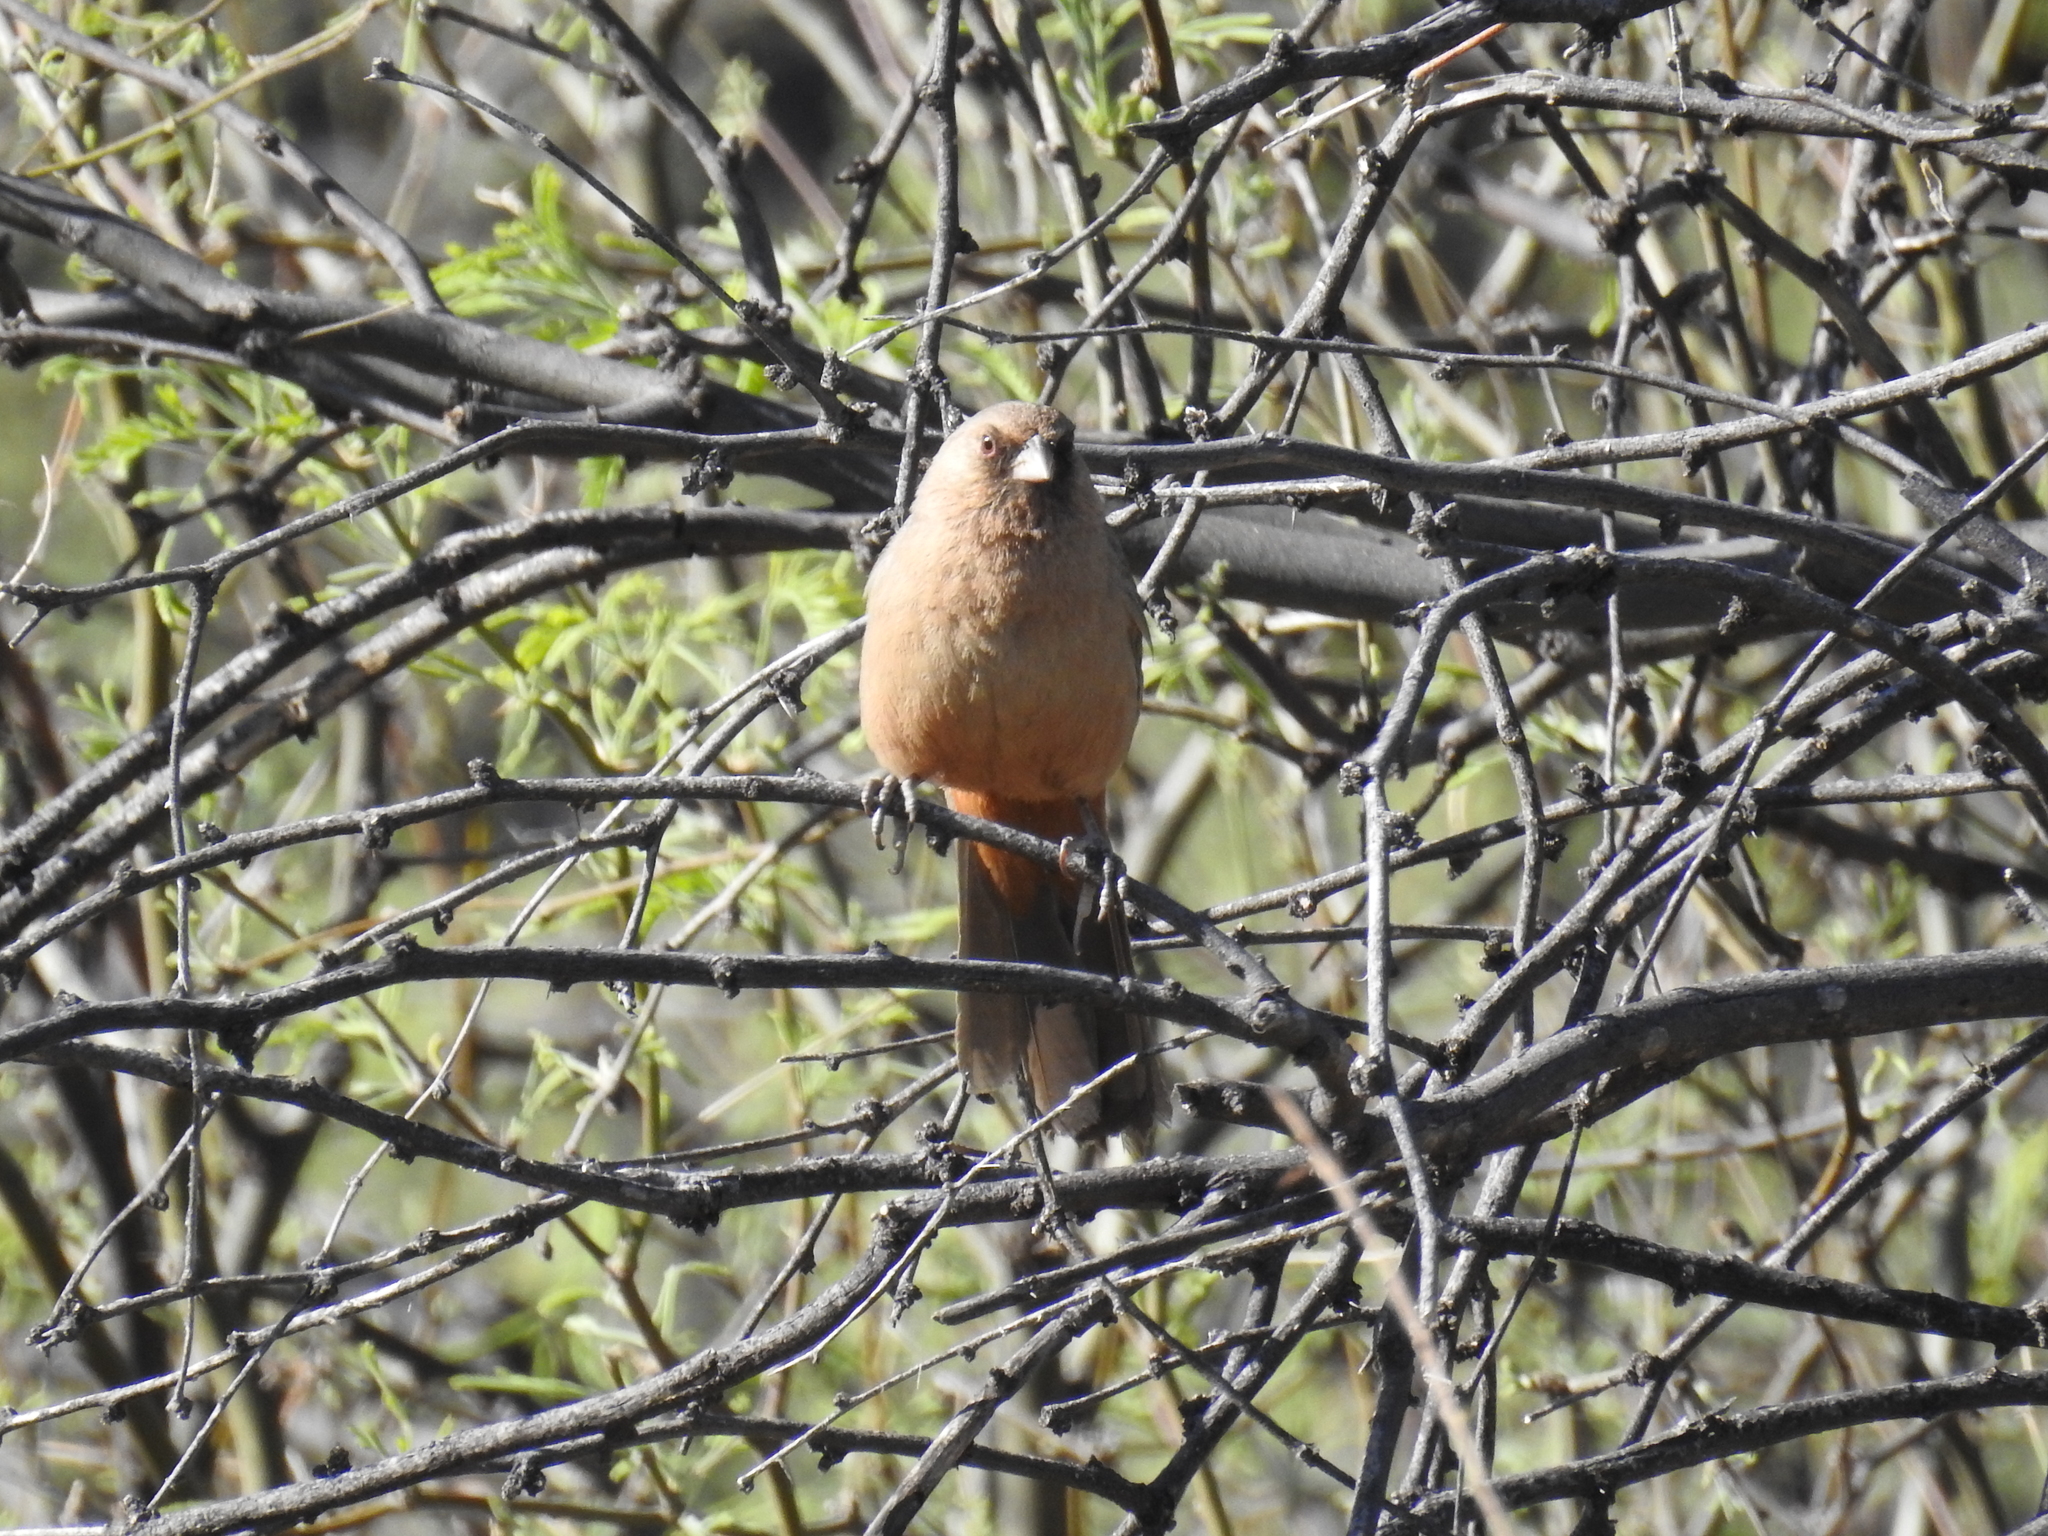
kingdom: Animalia
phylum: Chordata
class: Aves
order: Passeriformes
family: Passerellidae
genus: Melozone
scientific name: Melozone aberti
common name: Abert's towhee
